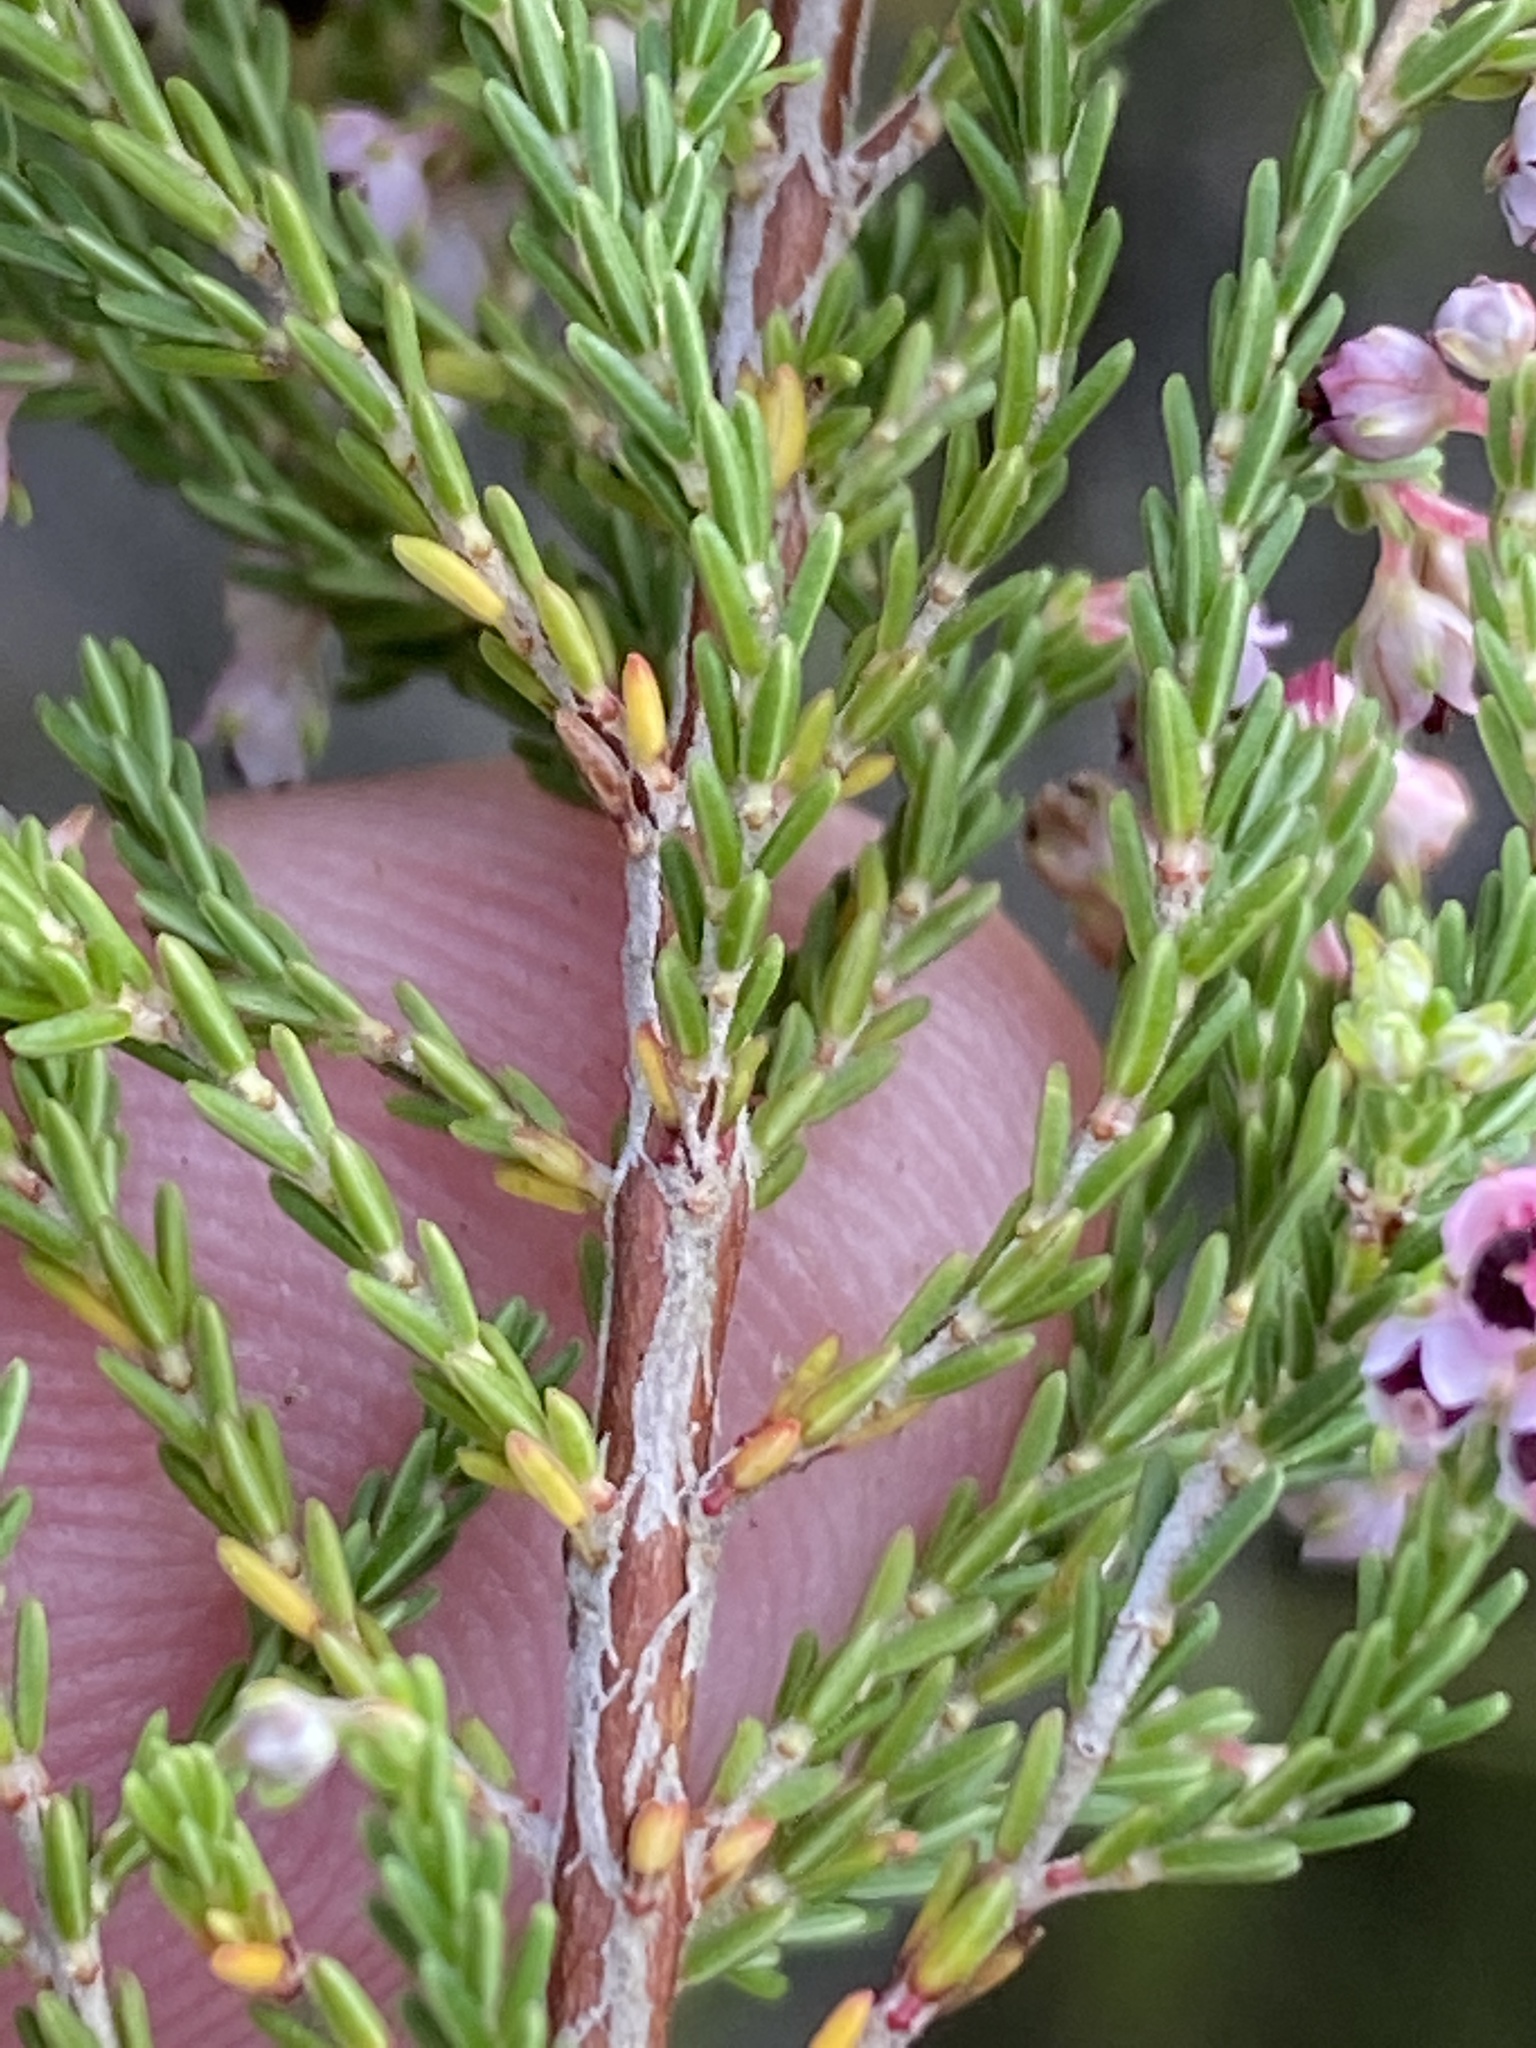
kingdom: Plantae
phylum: Tracheophyta
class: Magnoliopsida
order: Ericales
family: Ericaceae
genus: Erica
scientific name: Erica peltata
